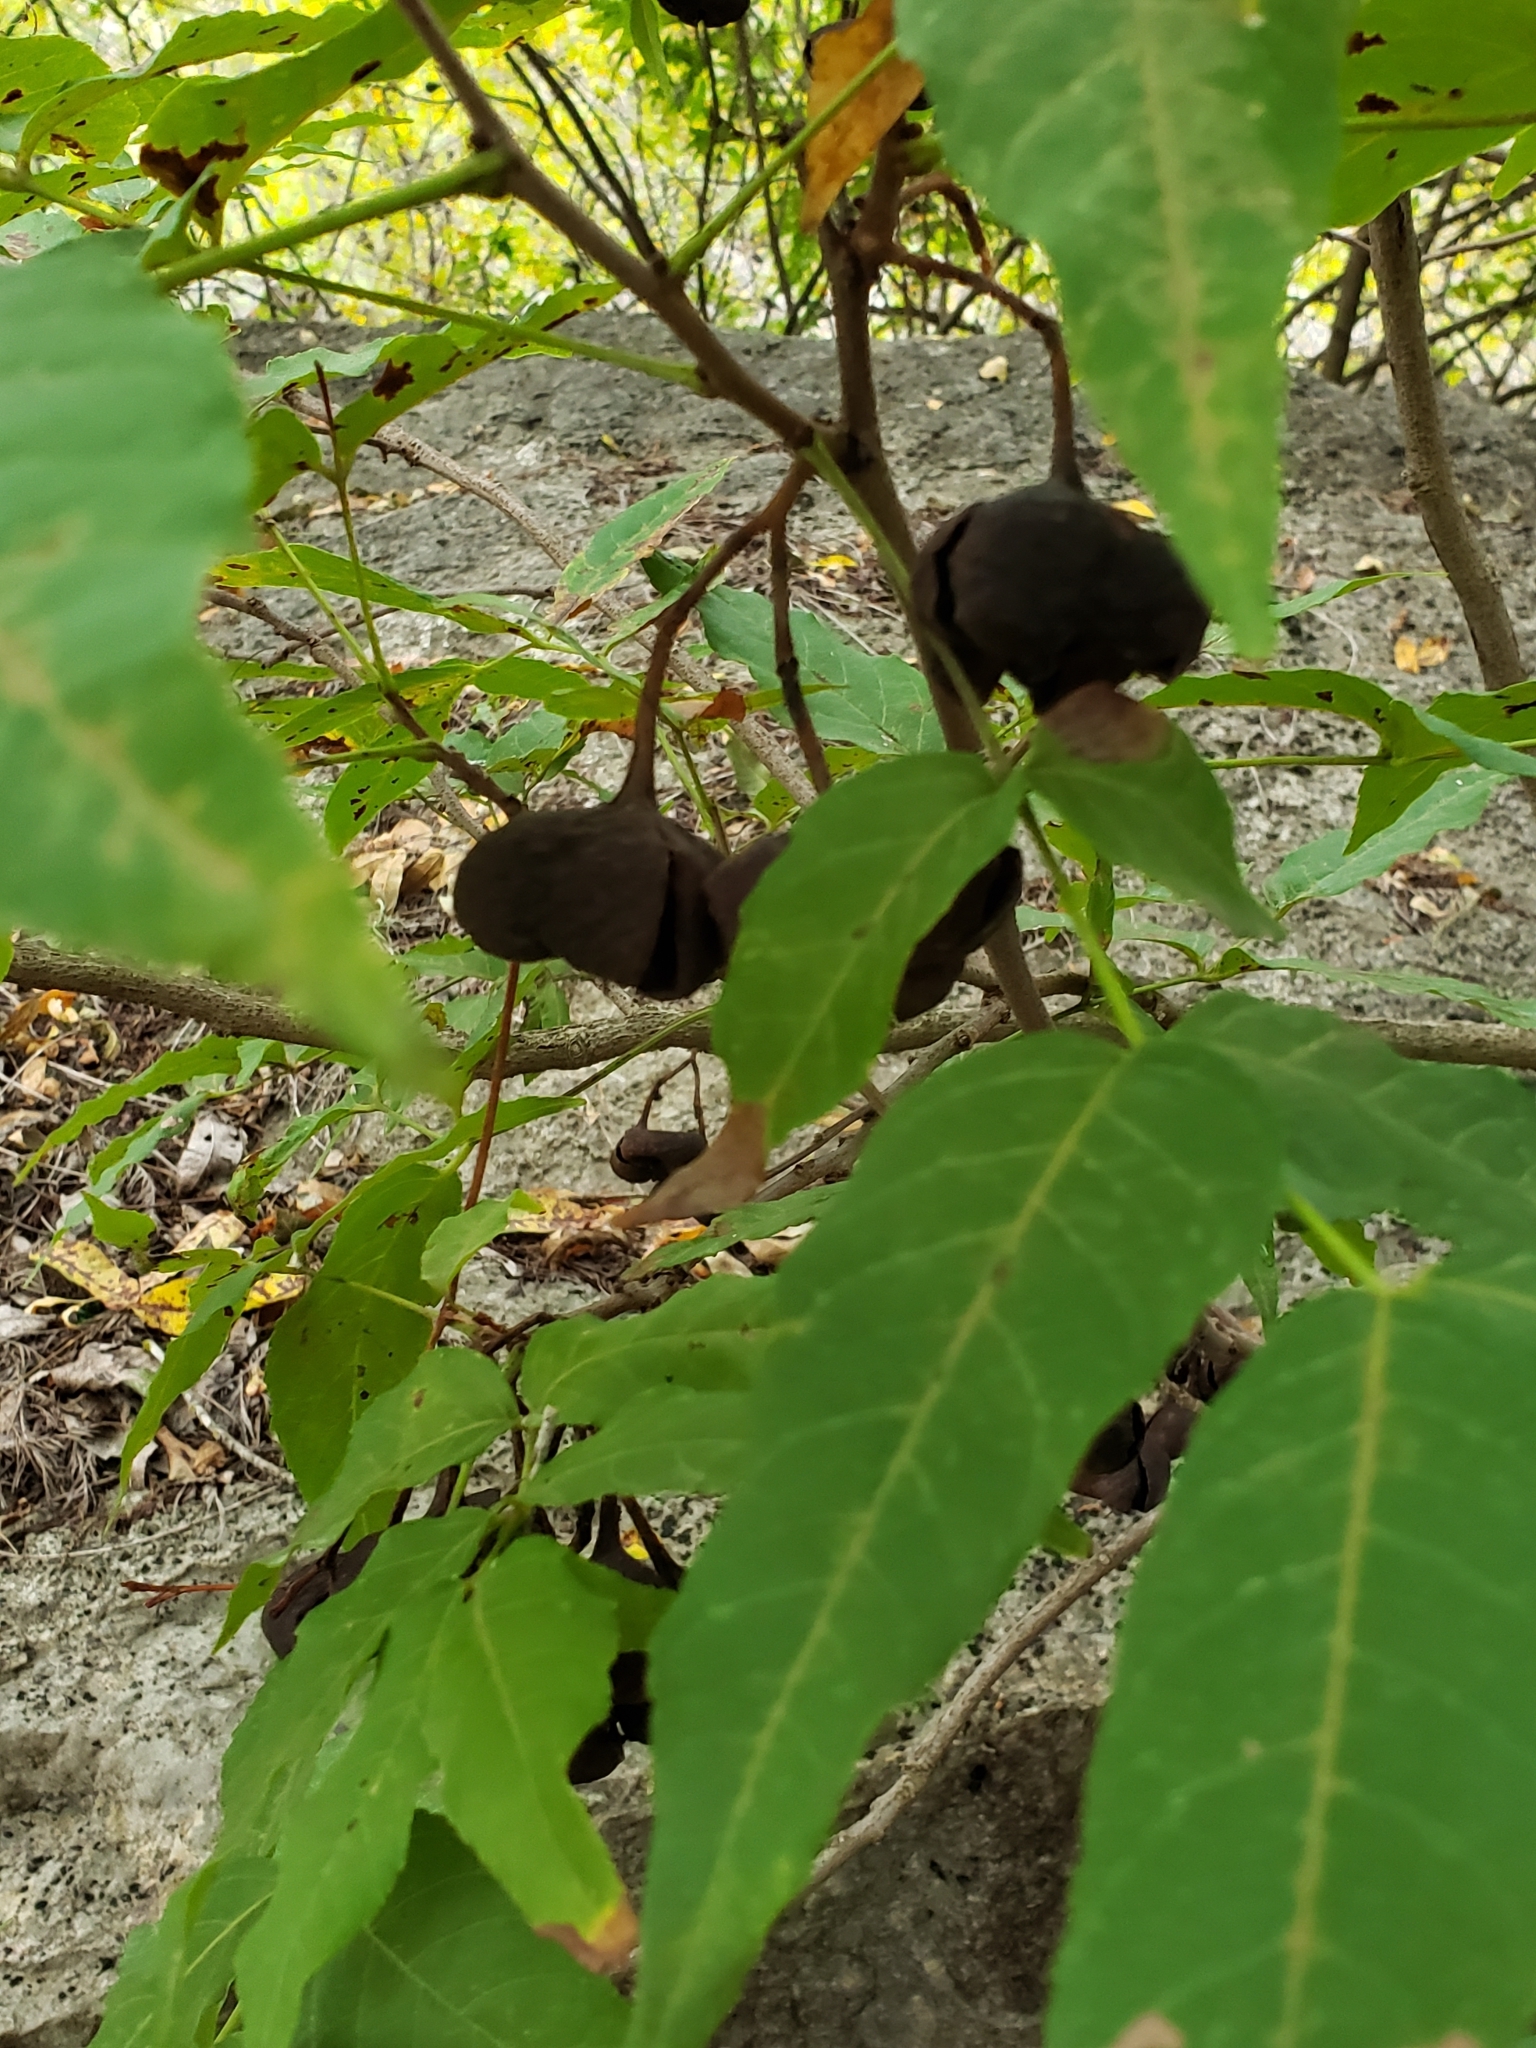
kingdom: Plantae
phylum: Tracheophyta
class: Magnoliopsida
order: Sapindales
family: Sapindaceae
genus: Ungnadia
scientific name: Ungnadia speciosa
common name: Texas-buckeye
